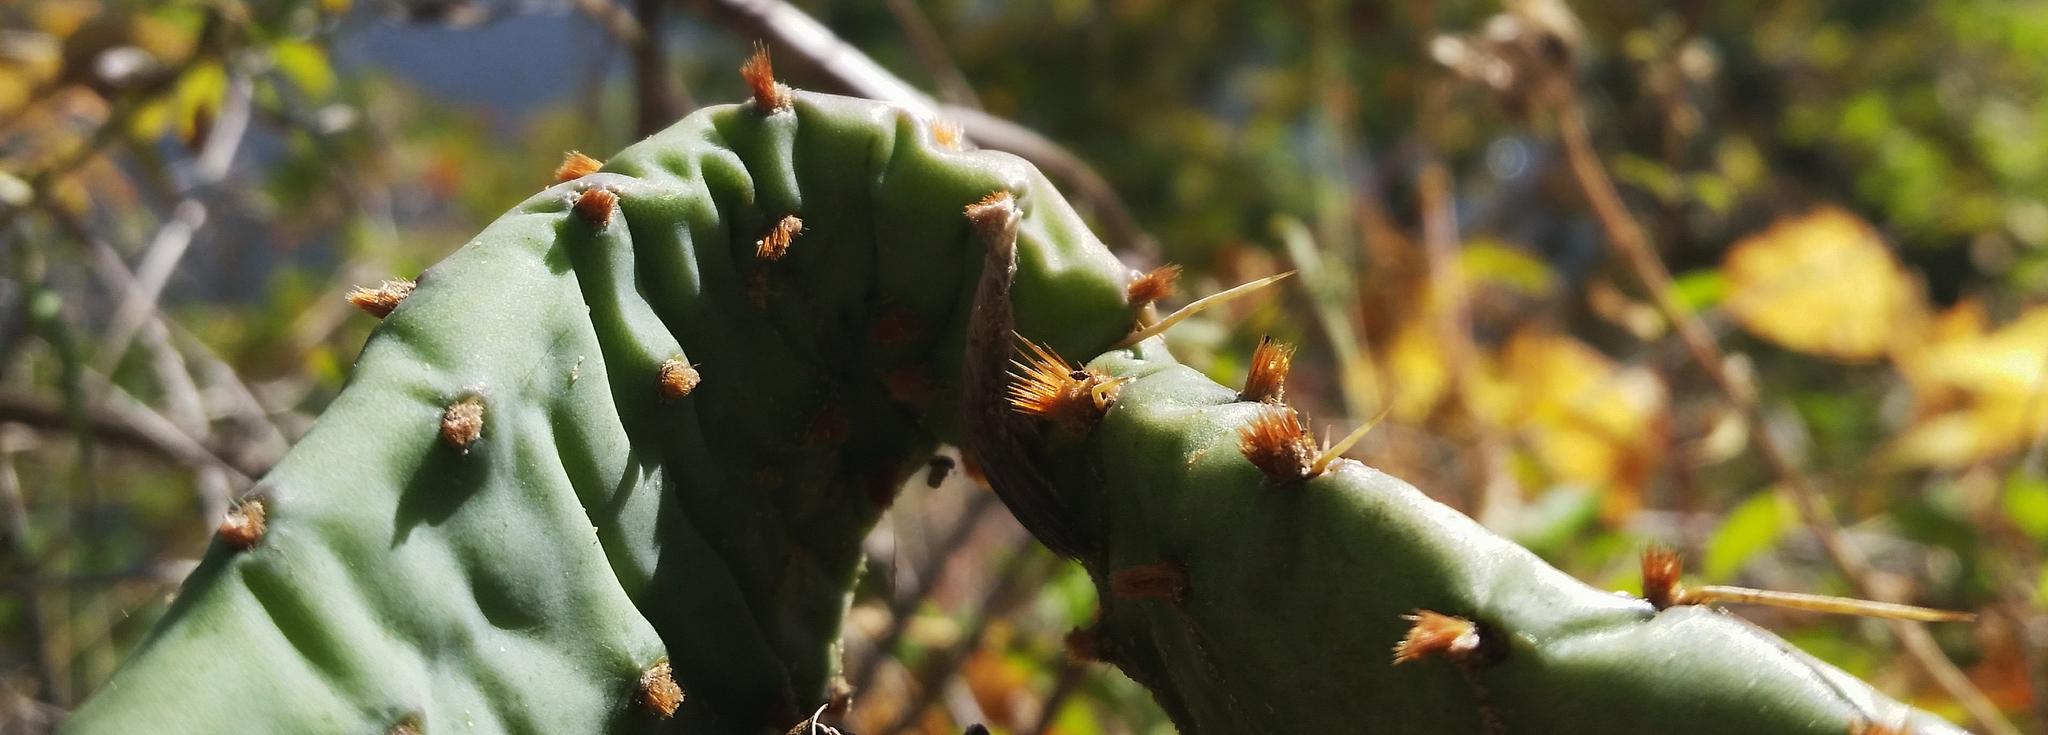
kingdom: Plantae
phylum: Tracheophyta
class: Magnoliopsida
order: Caryophyllales
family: Cactaceae
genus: Opuntia
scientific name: Opuntia humifusa
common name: Eastern prickly-pear
